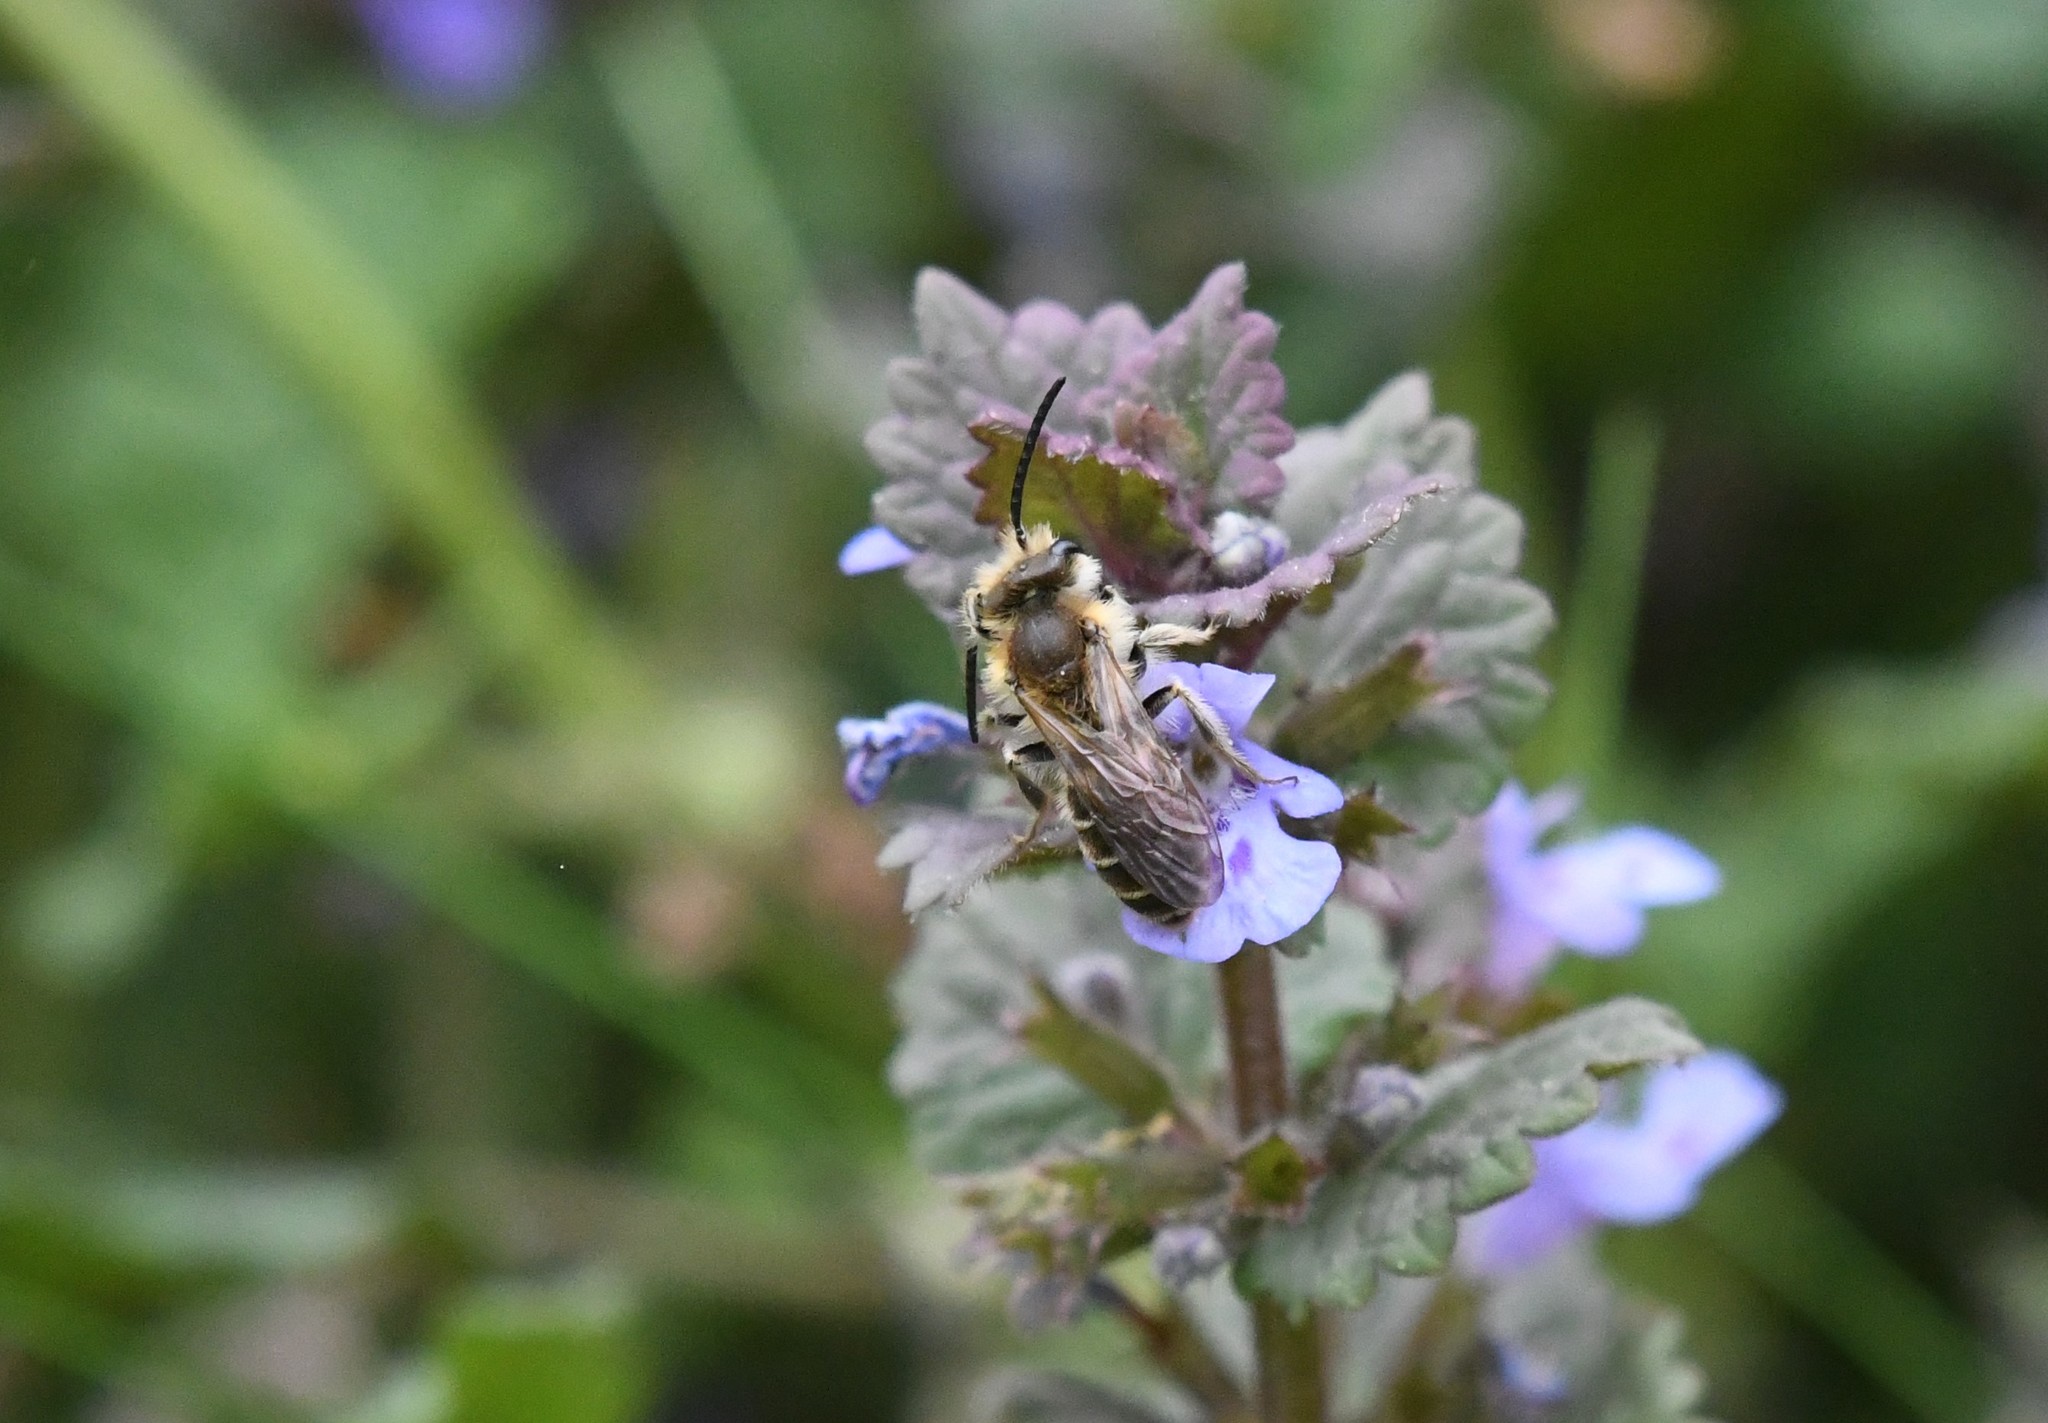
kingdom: Animalia
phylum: Arthropoda
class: Insecta
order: Hymenoptera
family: Andrenidae
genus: Andrena
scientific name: Andrena wilkella
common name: Wilke's mining bee
